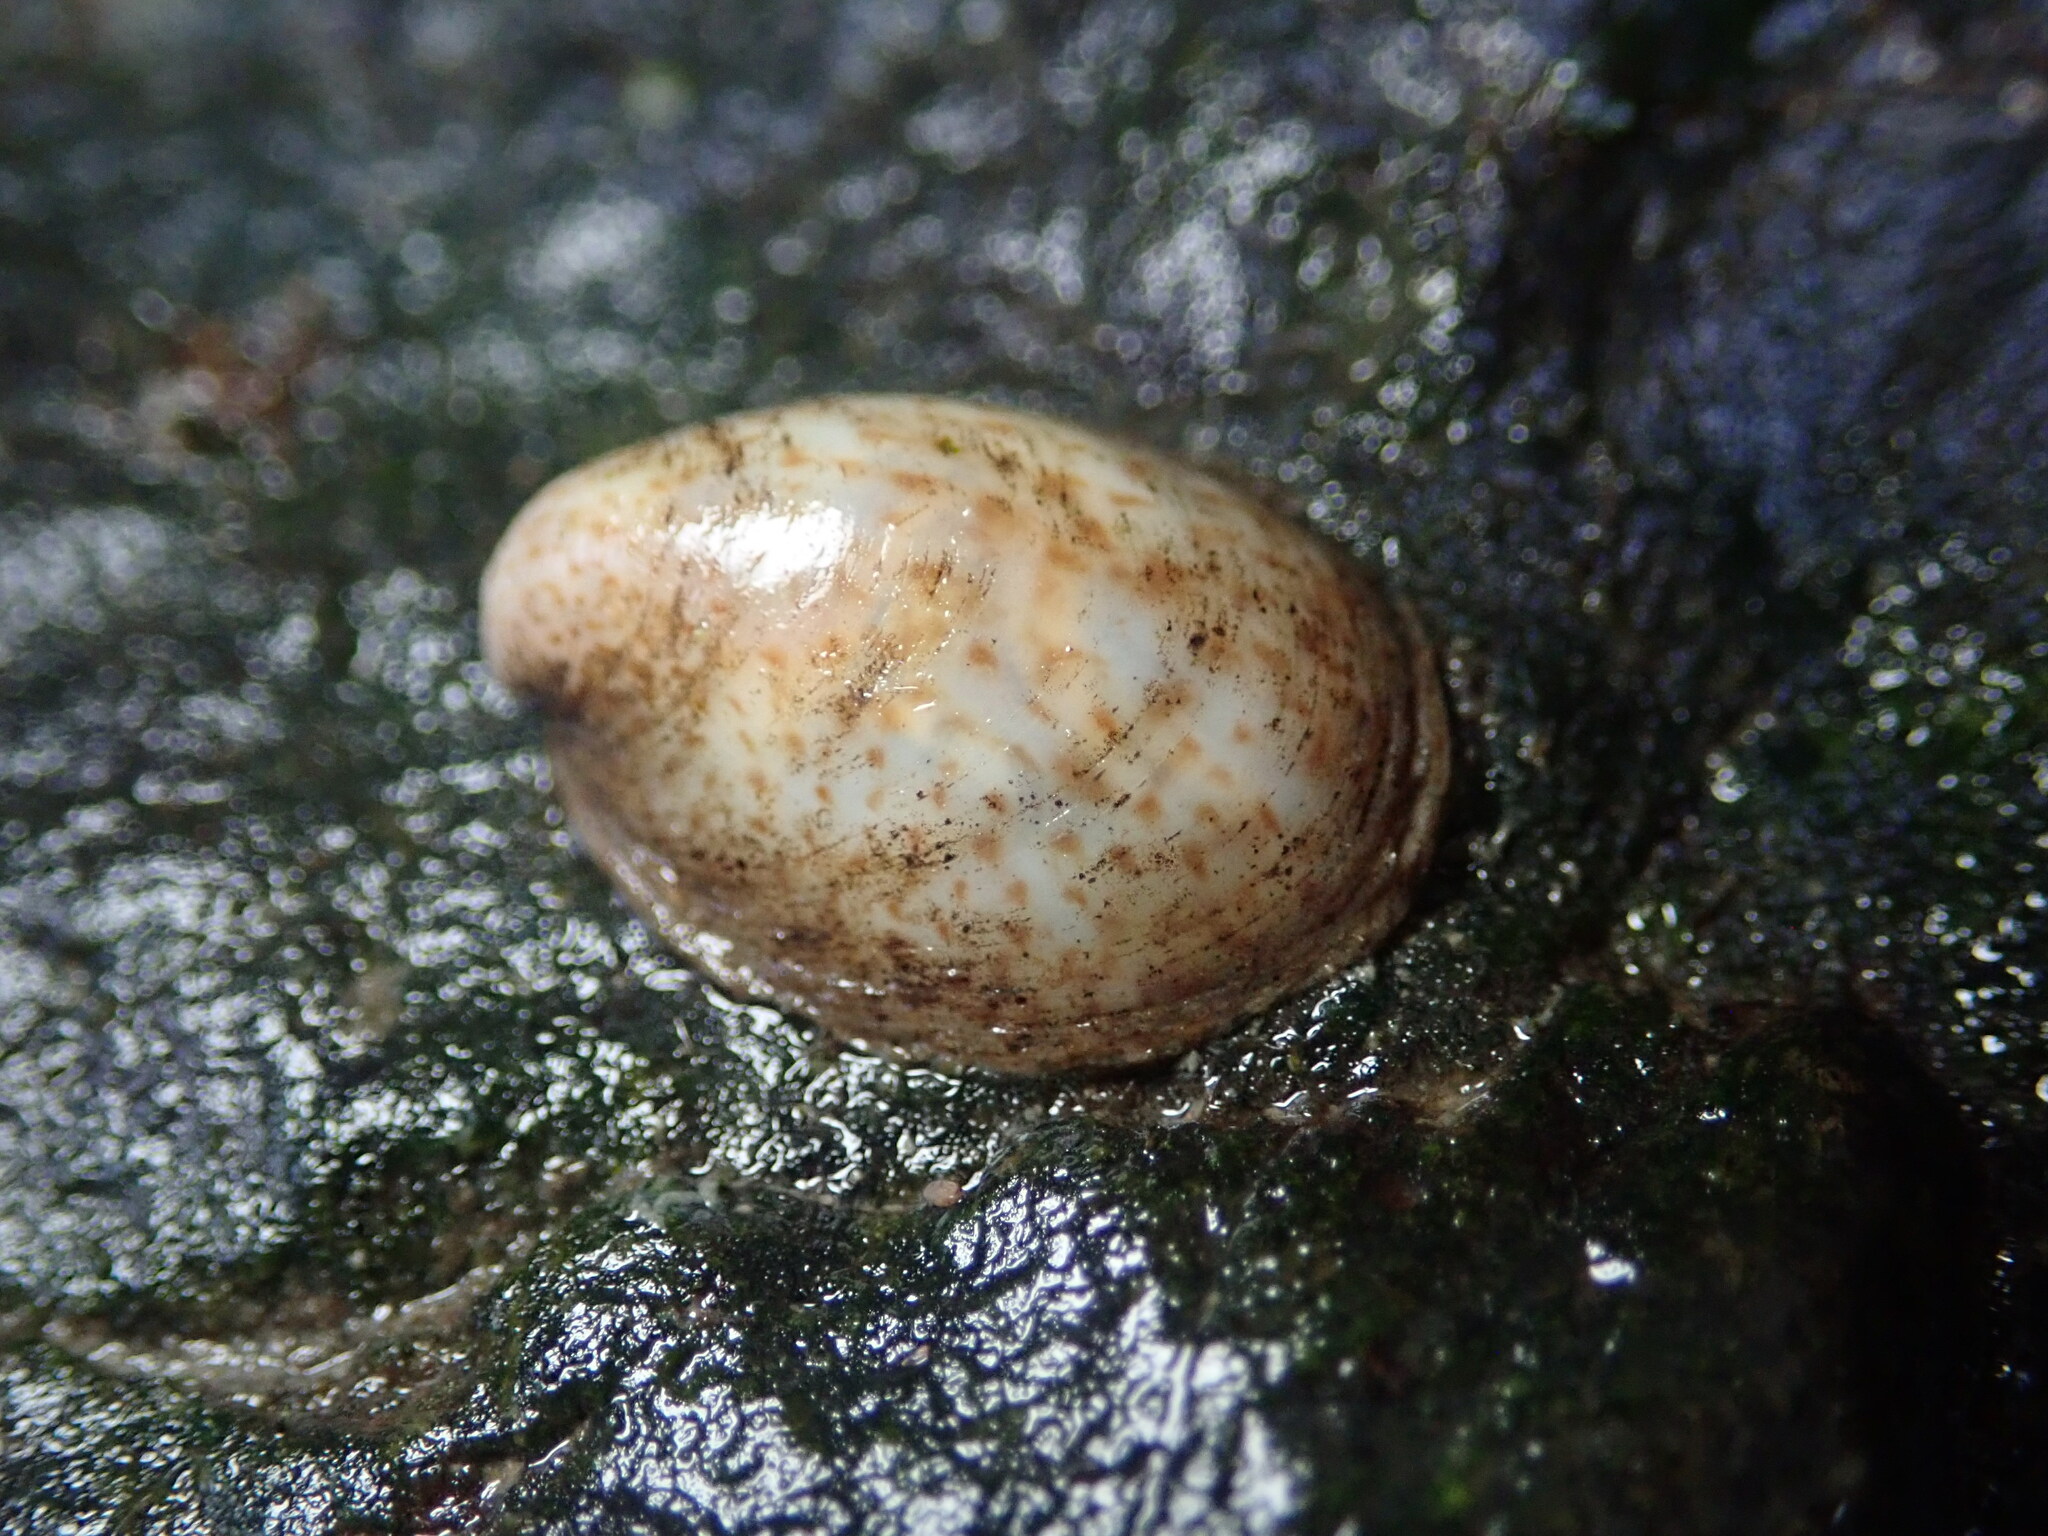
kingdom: Animalia
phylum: Mollusca
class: Gastropoda
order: Littorinimorpha
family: Calyptraeidae
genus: Crepidula
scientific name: Crepidula convexa
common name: Convex slippersnail
